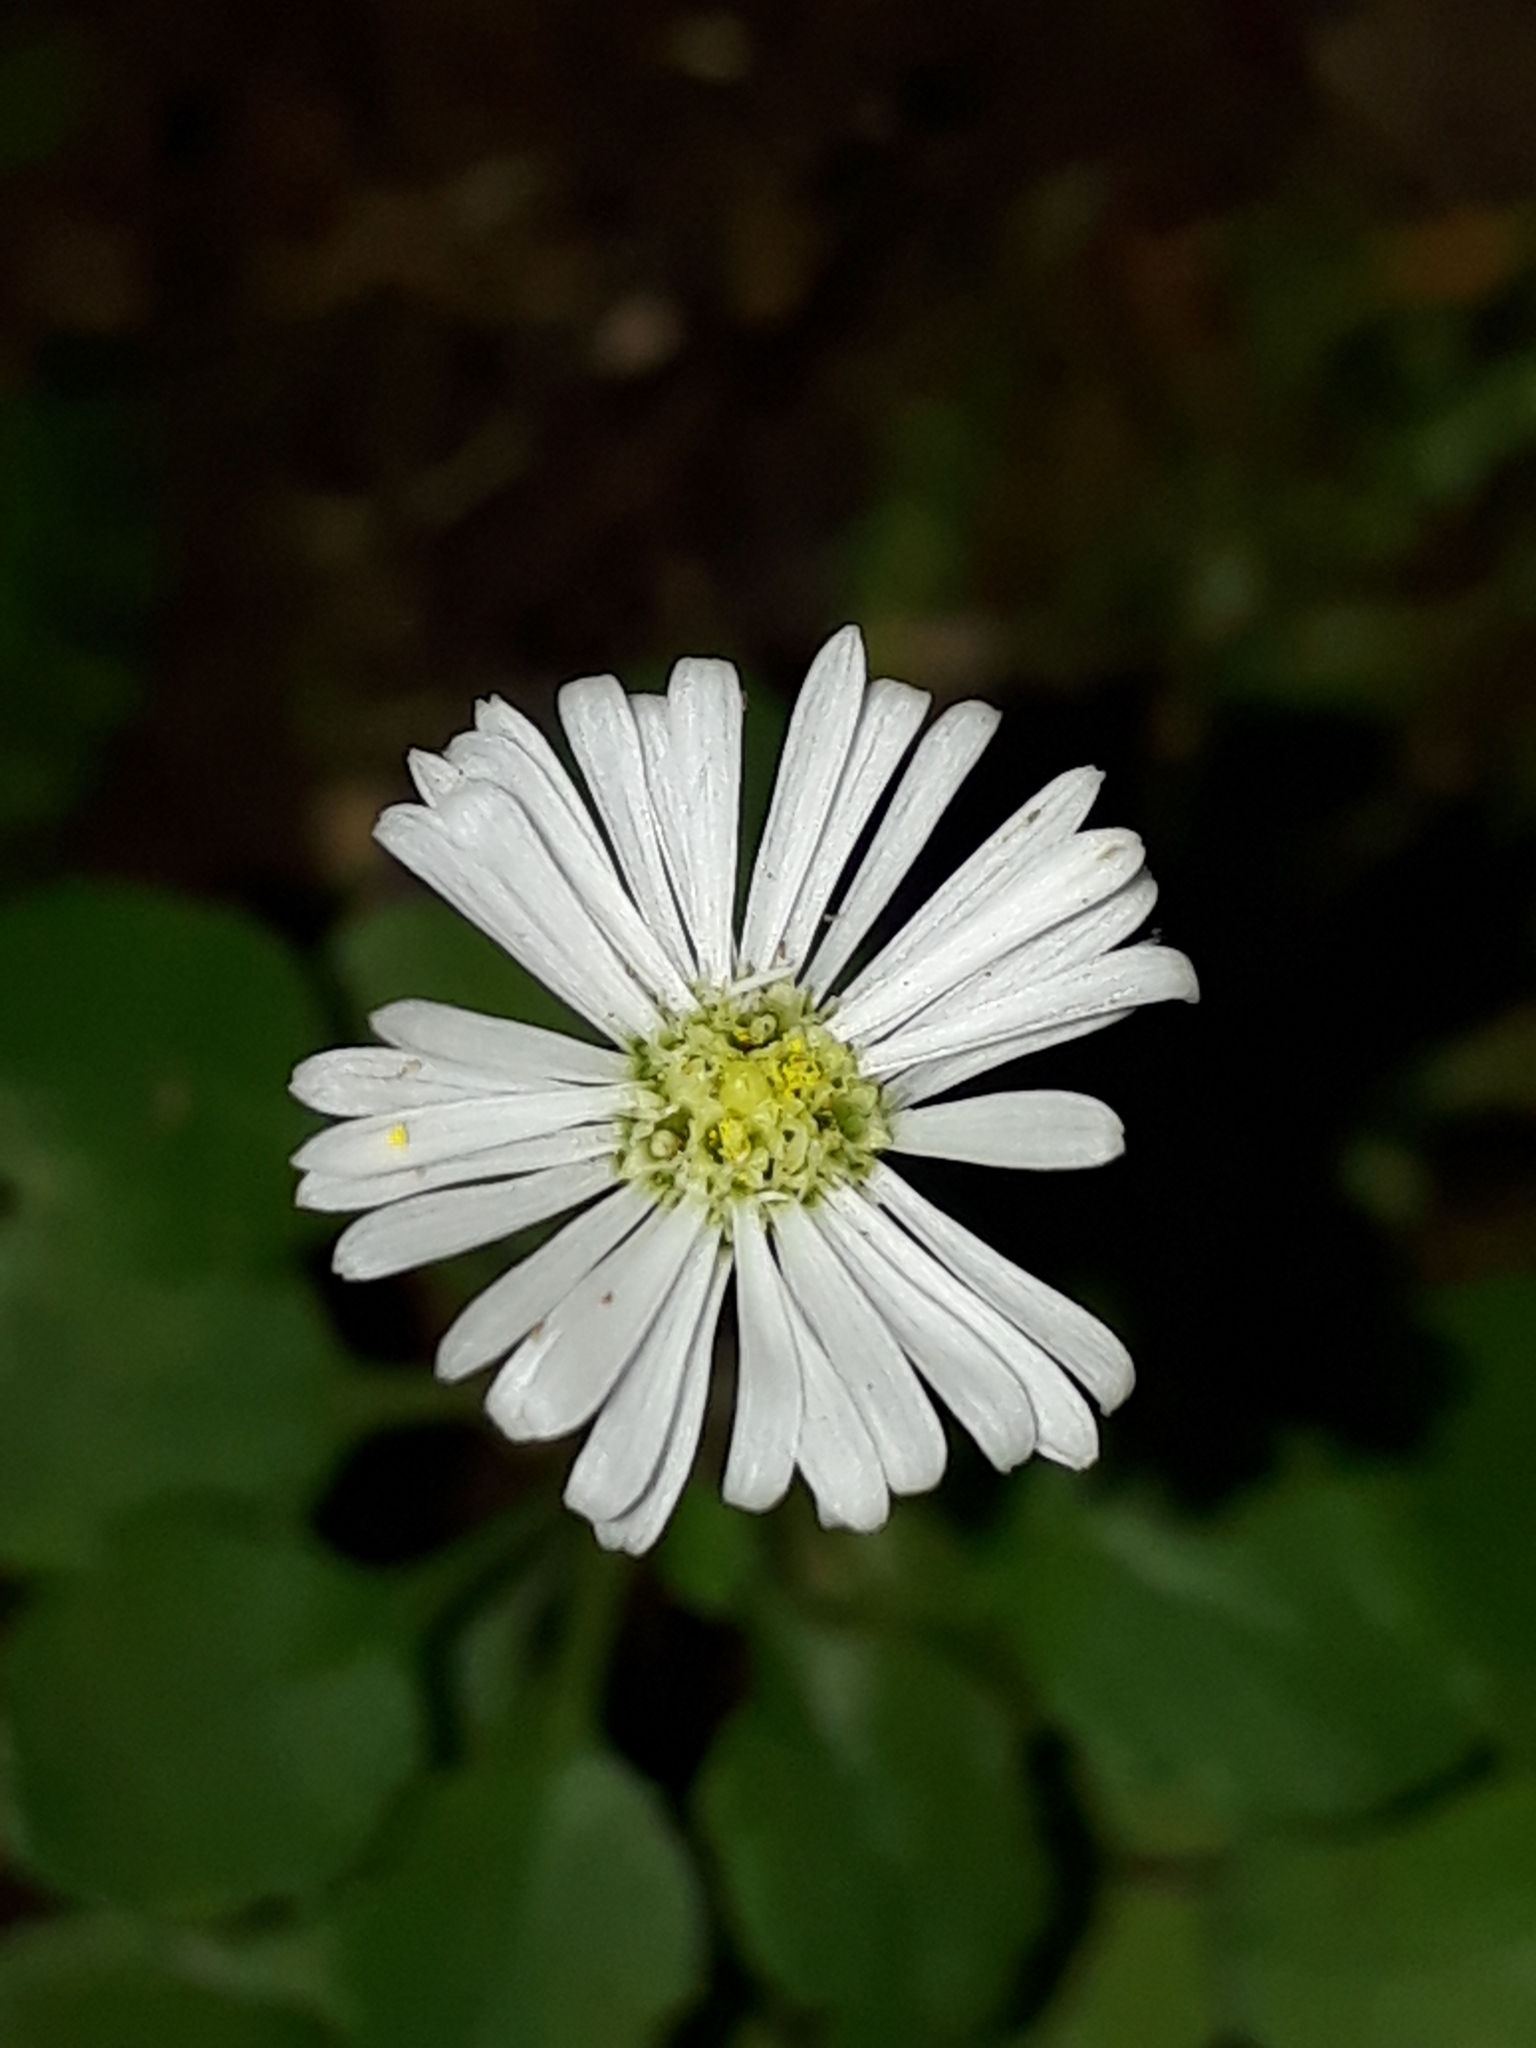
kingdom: Plantae
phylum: Tracheophyta
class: Magnoliopsida
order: Asterales
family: Asteraceae
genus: Lagenophora
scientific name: Lagenophora pumila
